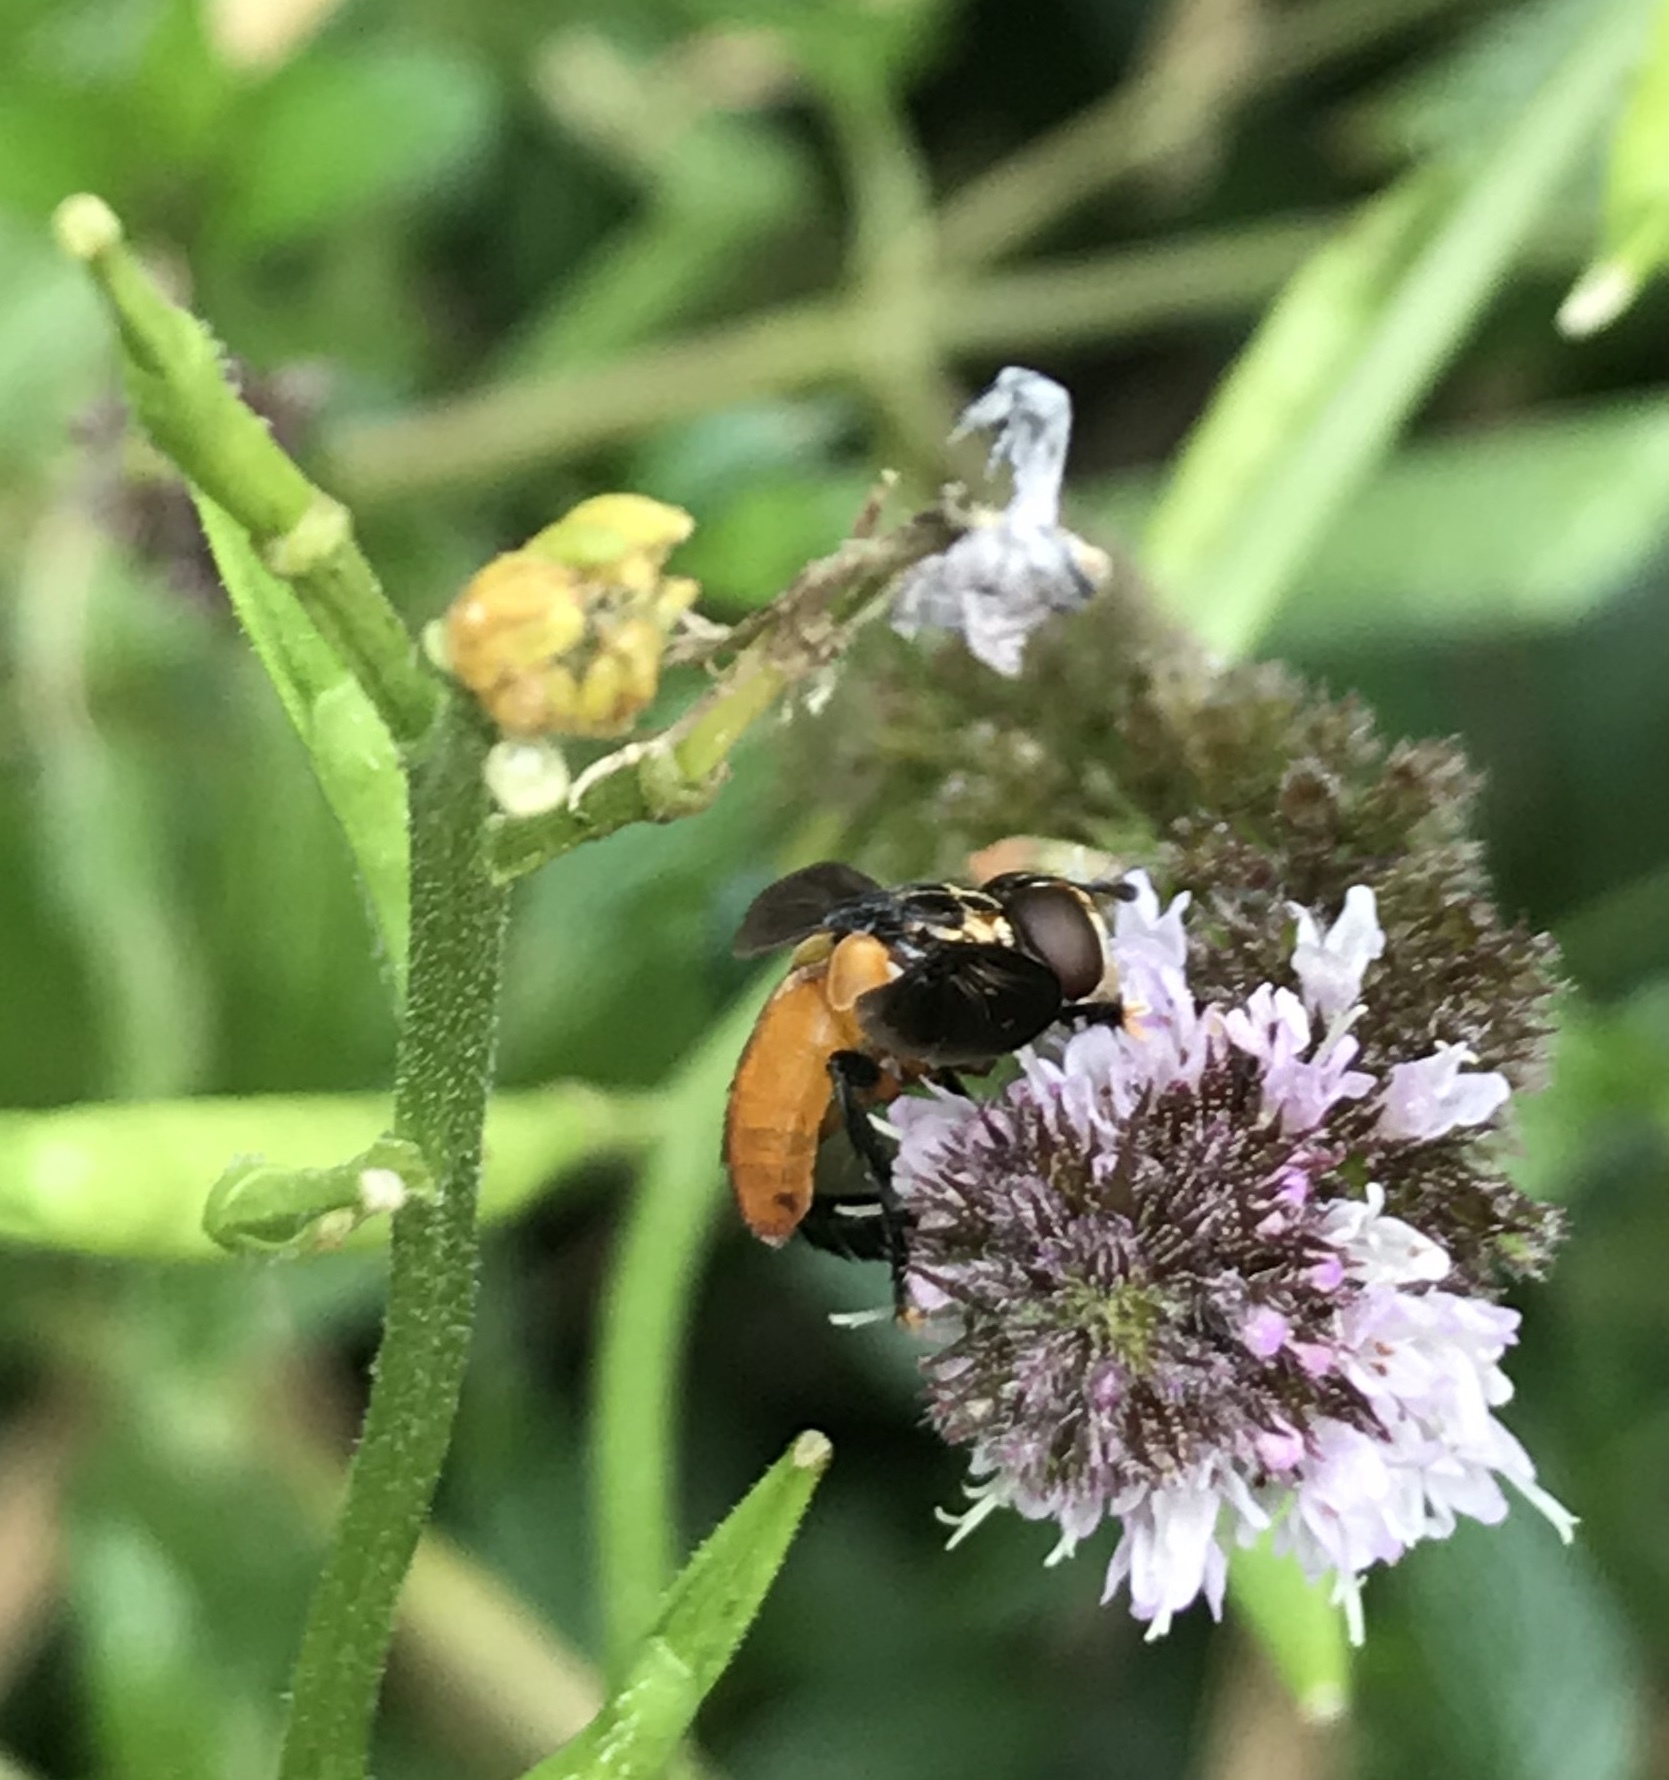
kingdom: Animalia
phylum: Arthropoda
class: Insecta
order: Diptera
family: Tachinidae
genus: Trichopoda
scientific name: Trichopoda pennipes
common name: Tachinid fly
